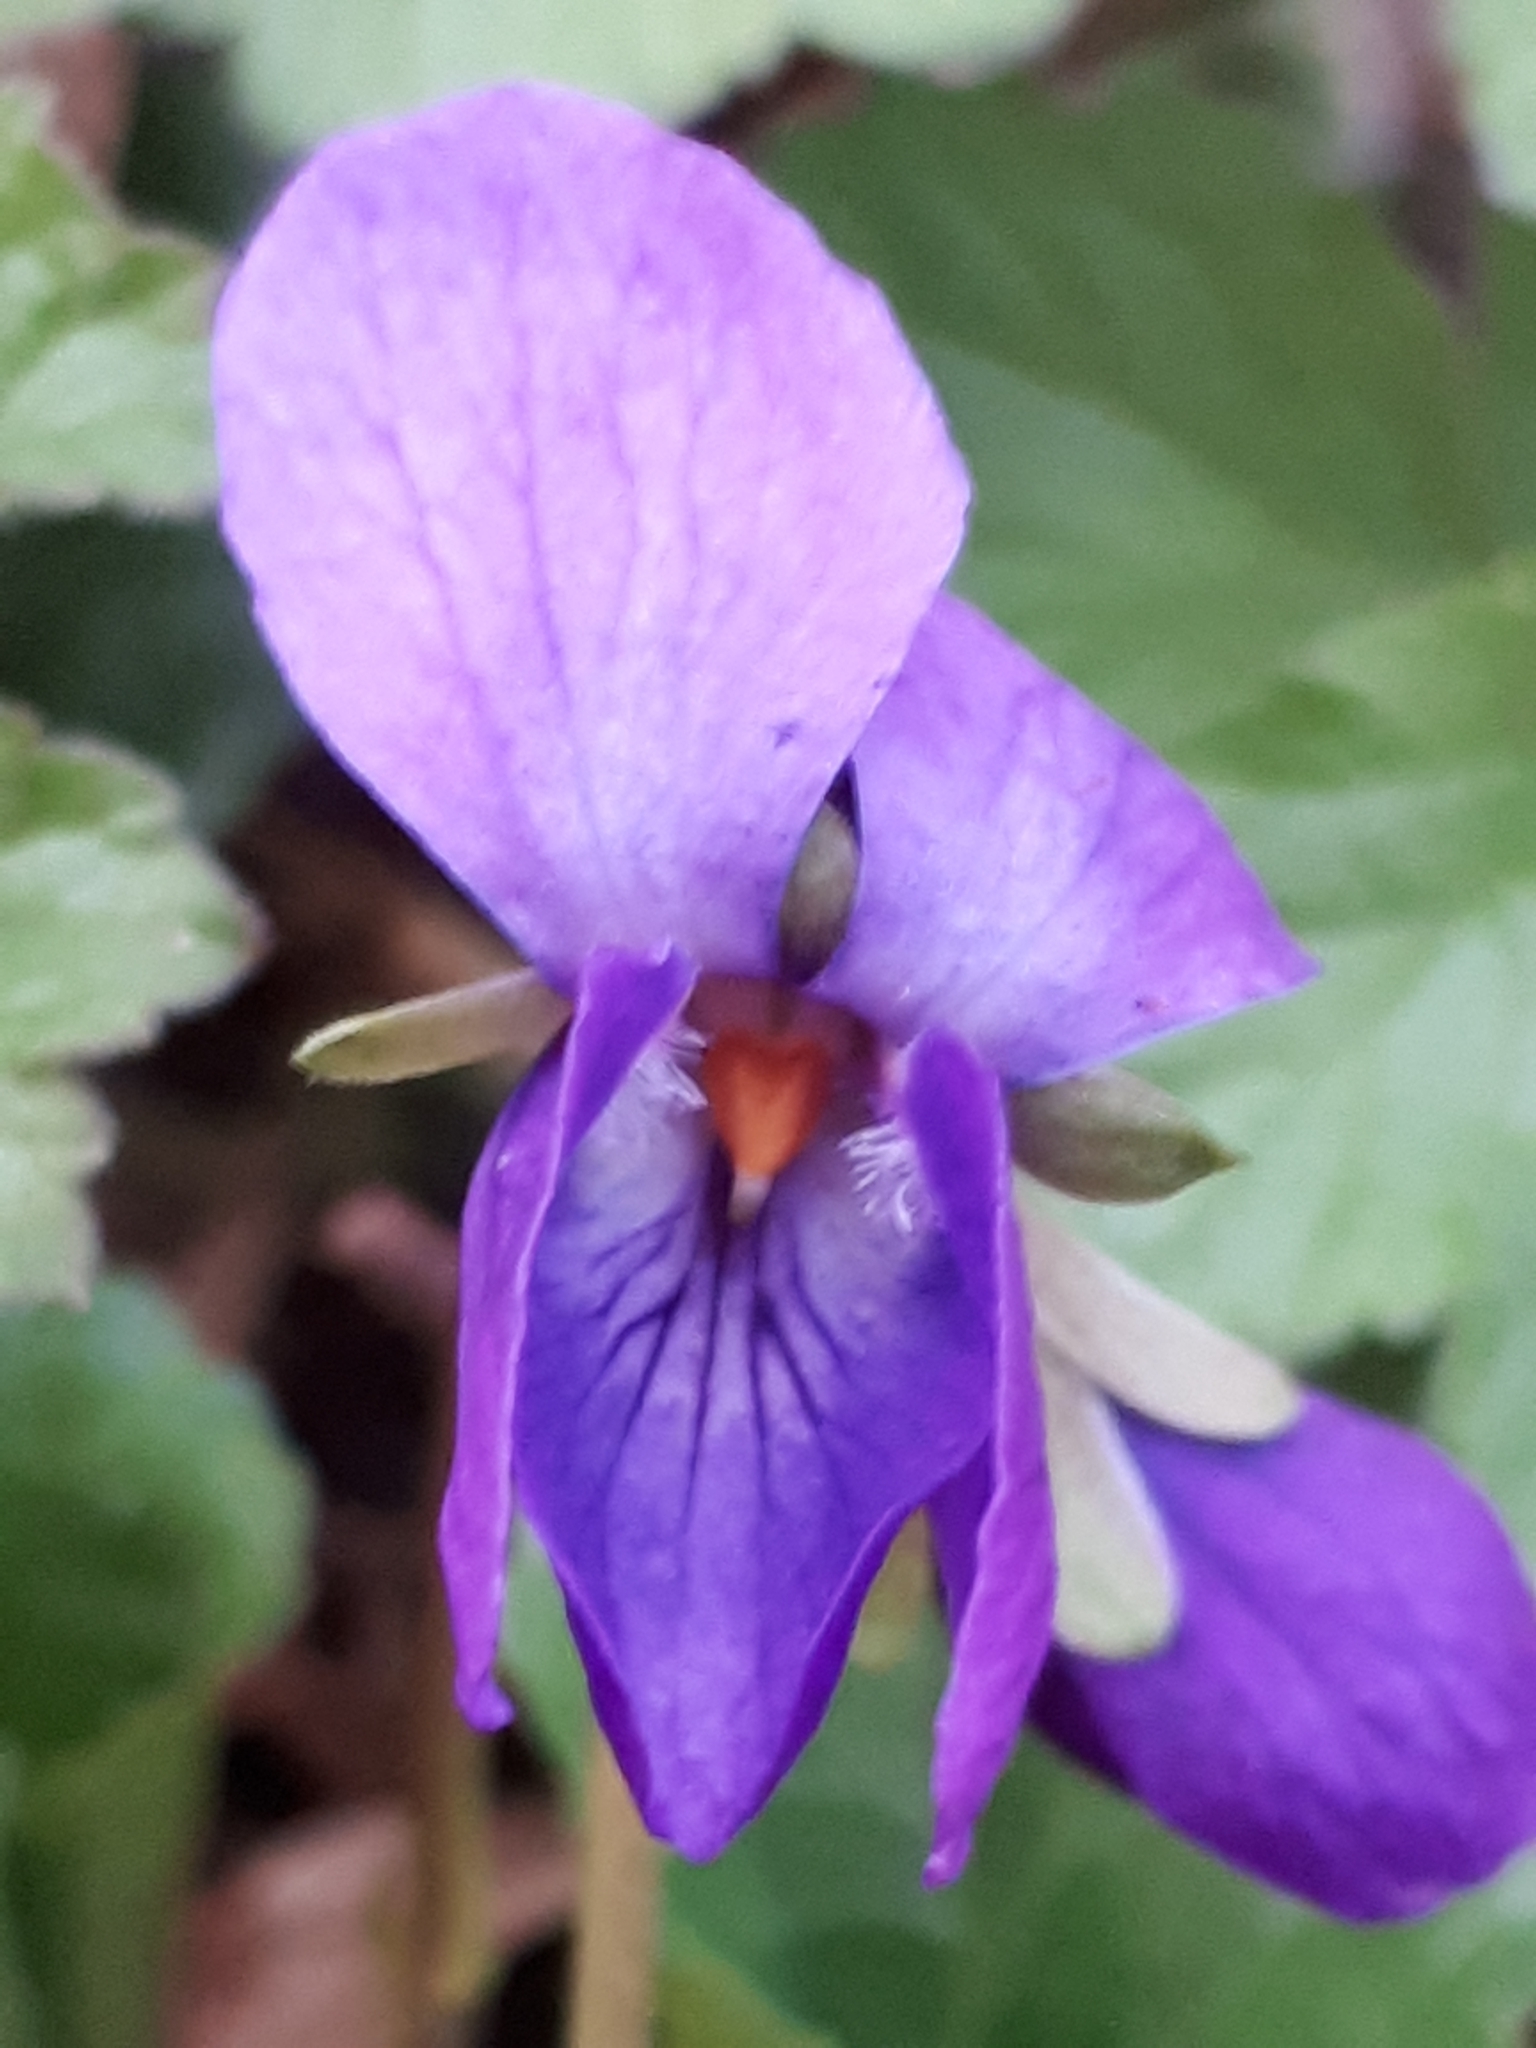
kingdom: Plantae
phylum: Tracheophyta
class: Magnoliopsida
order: Malpighiales
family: Violaceae
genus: Viola
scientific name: Viola odorata
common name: Sweet violet
